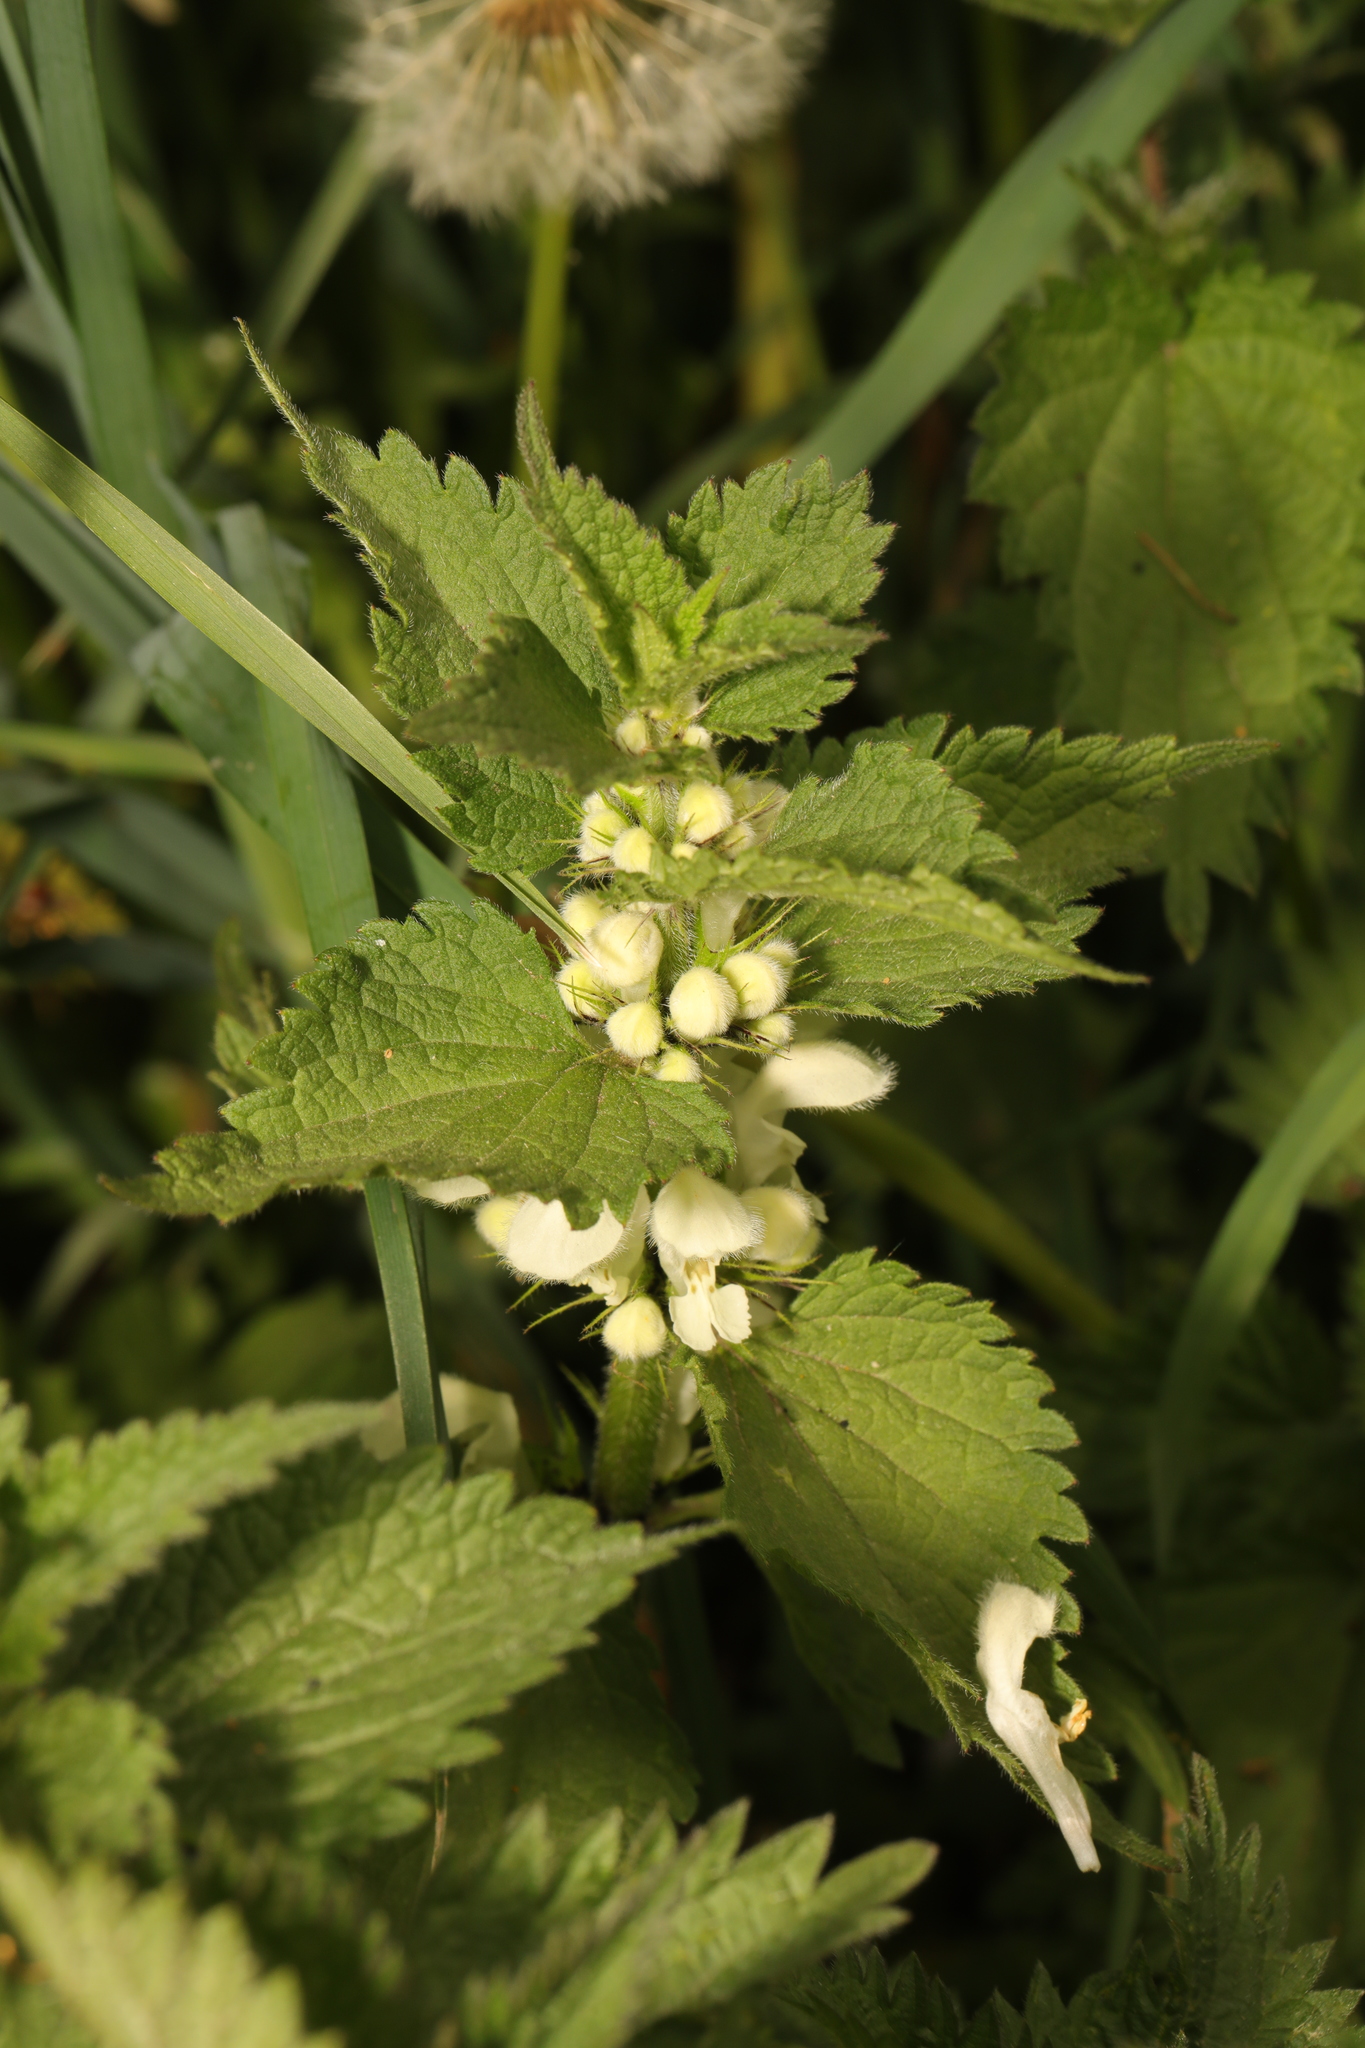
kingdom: Plantae
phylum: Tracheophyta
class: Magnoliopsida
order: Lamiales
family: Lamiaceae
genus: Lamium
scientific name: Lamium album
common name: White dead-nettle
